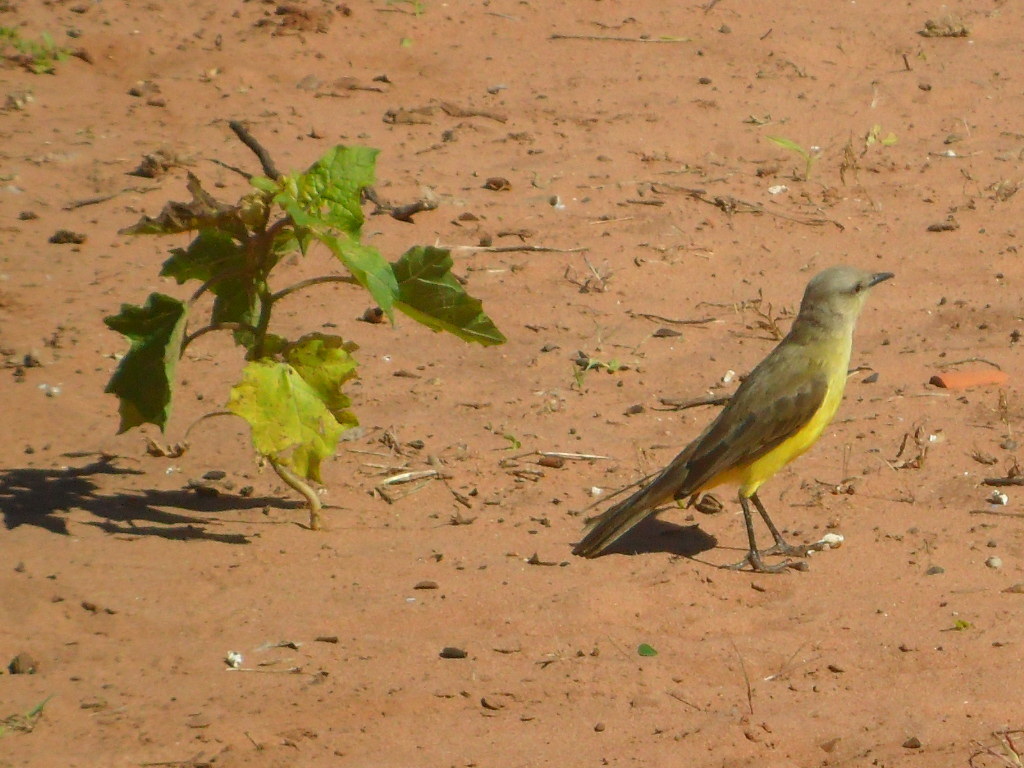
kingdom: Animalia
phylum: Chordata
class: Aves
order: Passeriformes
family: Tyrannidae
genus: Machetornis
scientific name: Machetornis rixosa
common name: Cattle tyrant
